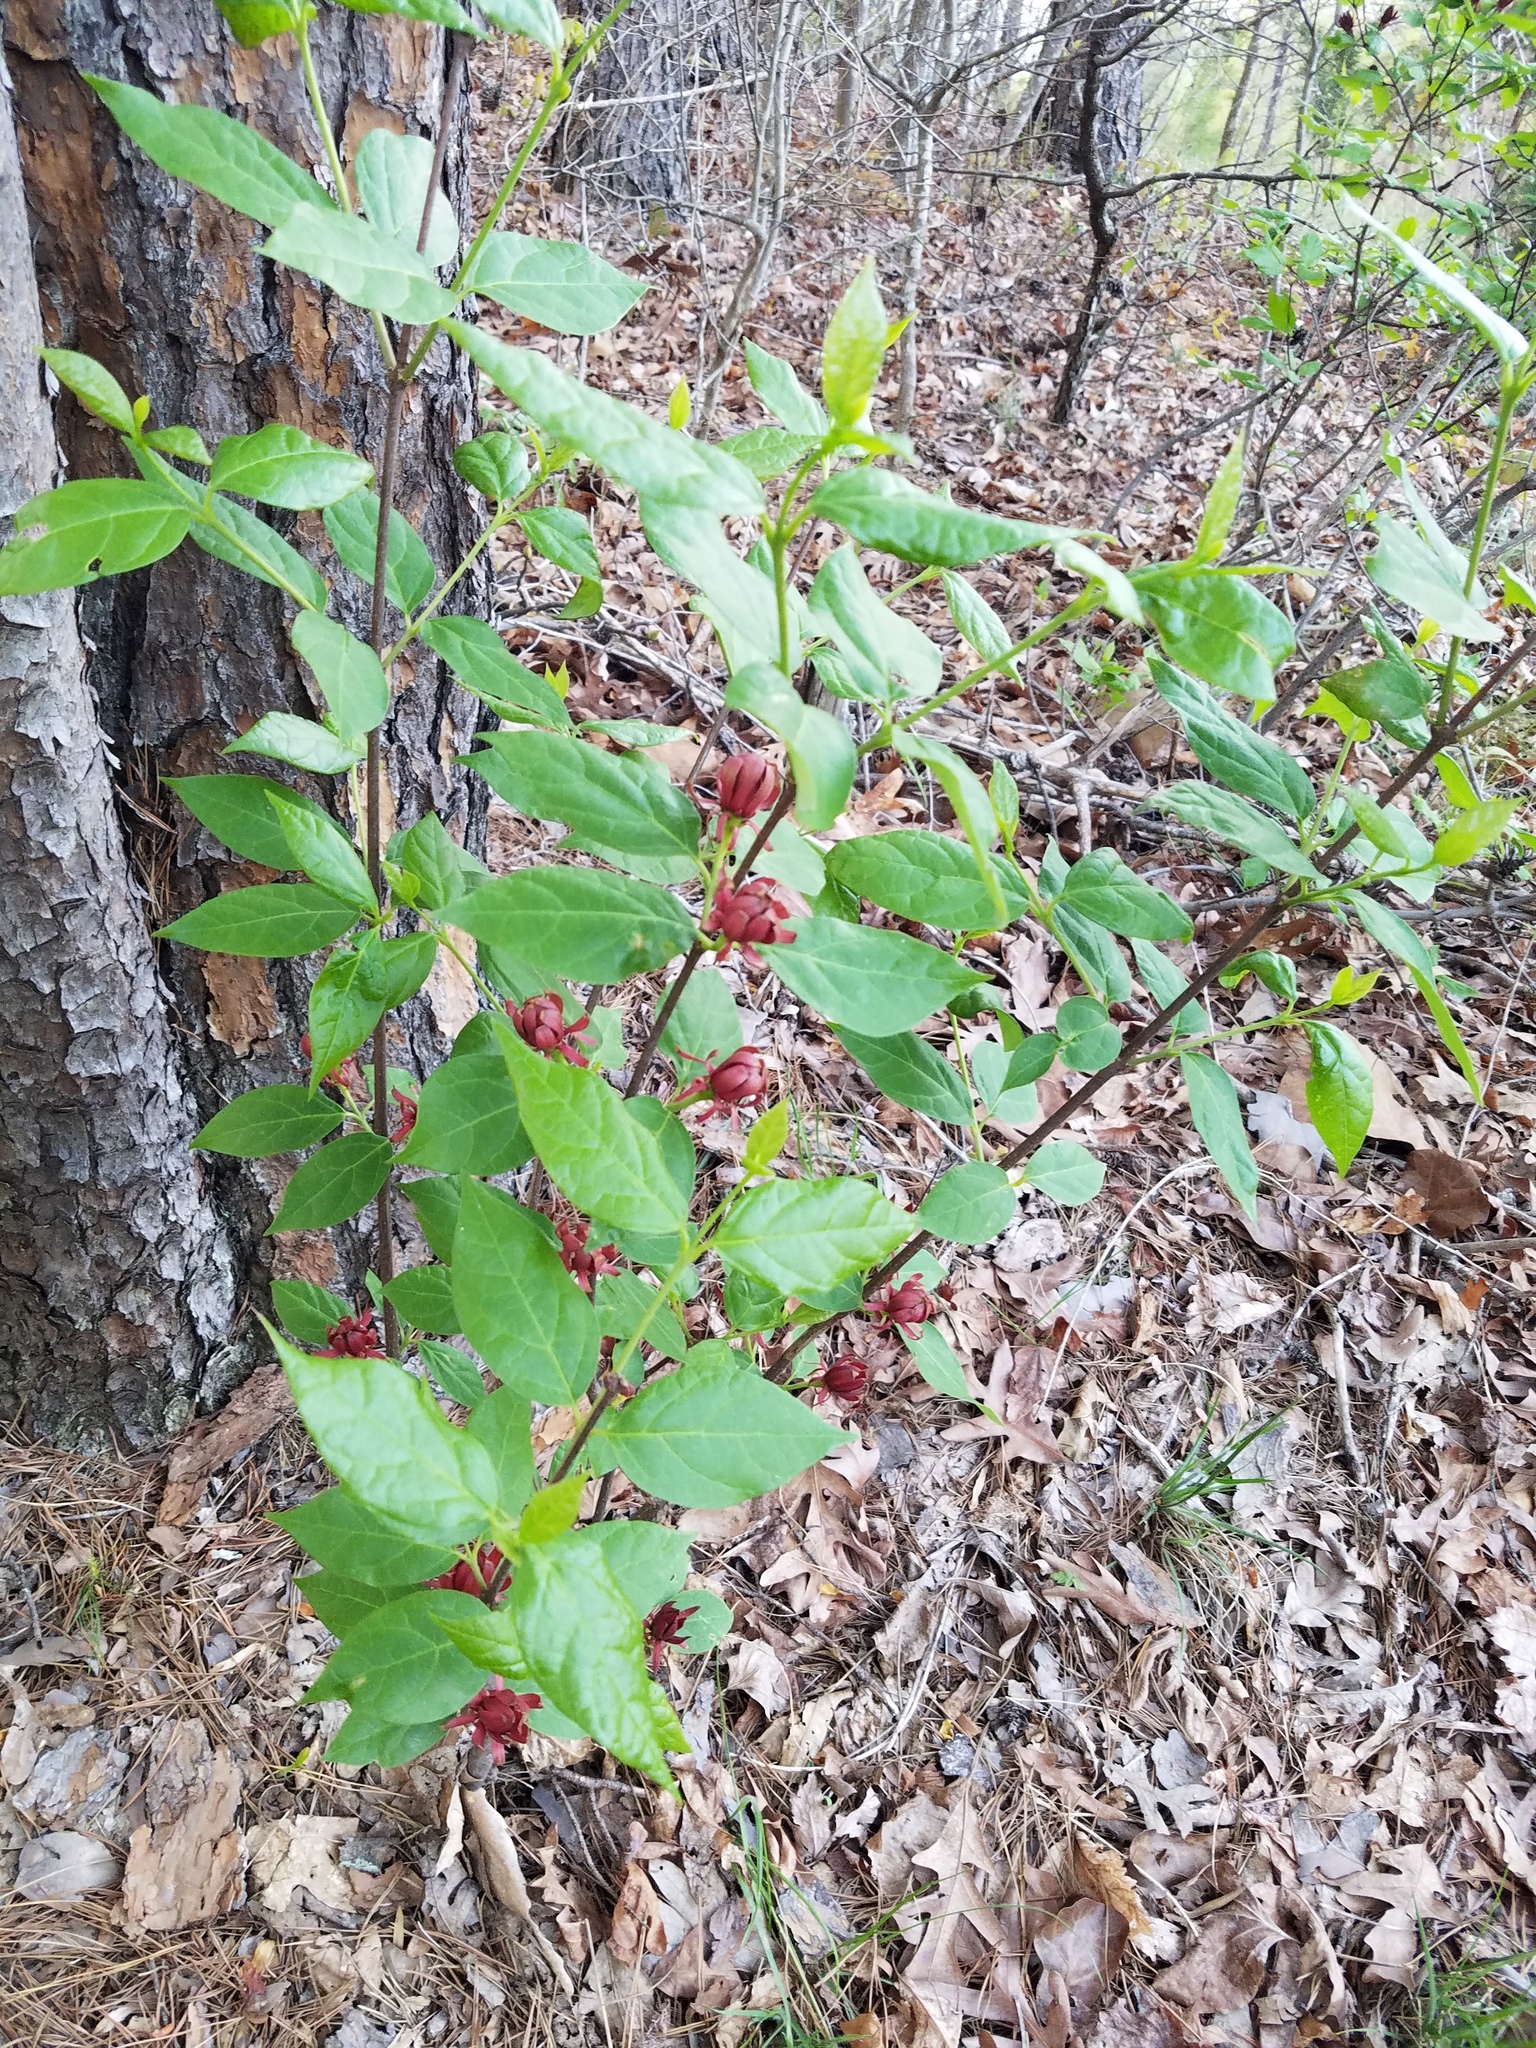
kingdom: Plantae
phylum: Tracheophyta
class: Magnoliopsida
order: Laurales
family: Calycanthaceae
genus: Calycanthus
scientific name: Calycanthus floridus
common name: Carolina-allspice
